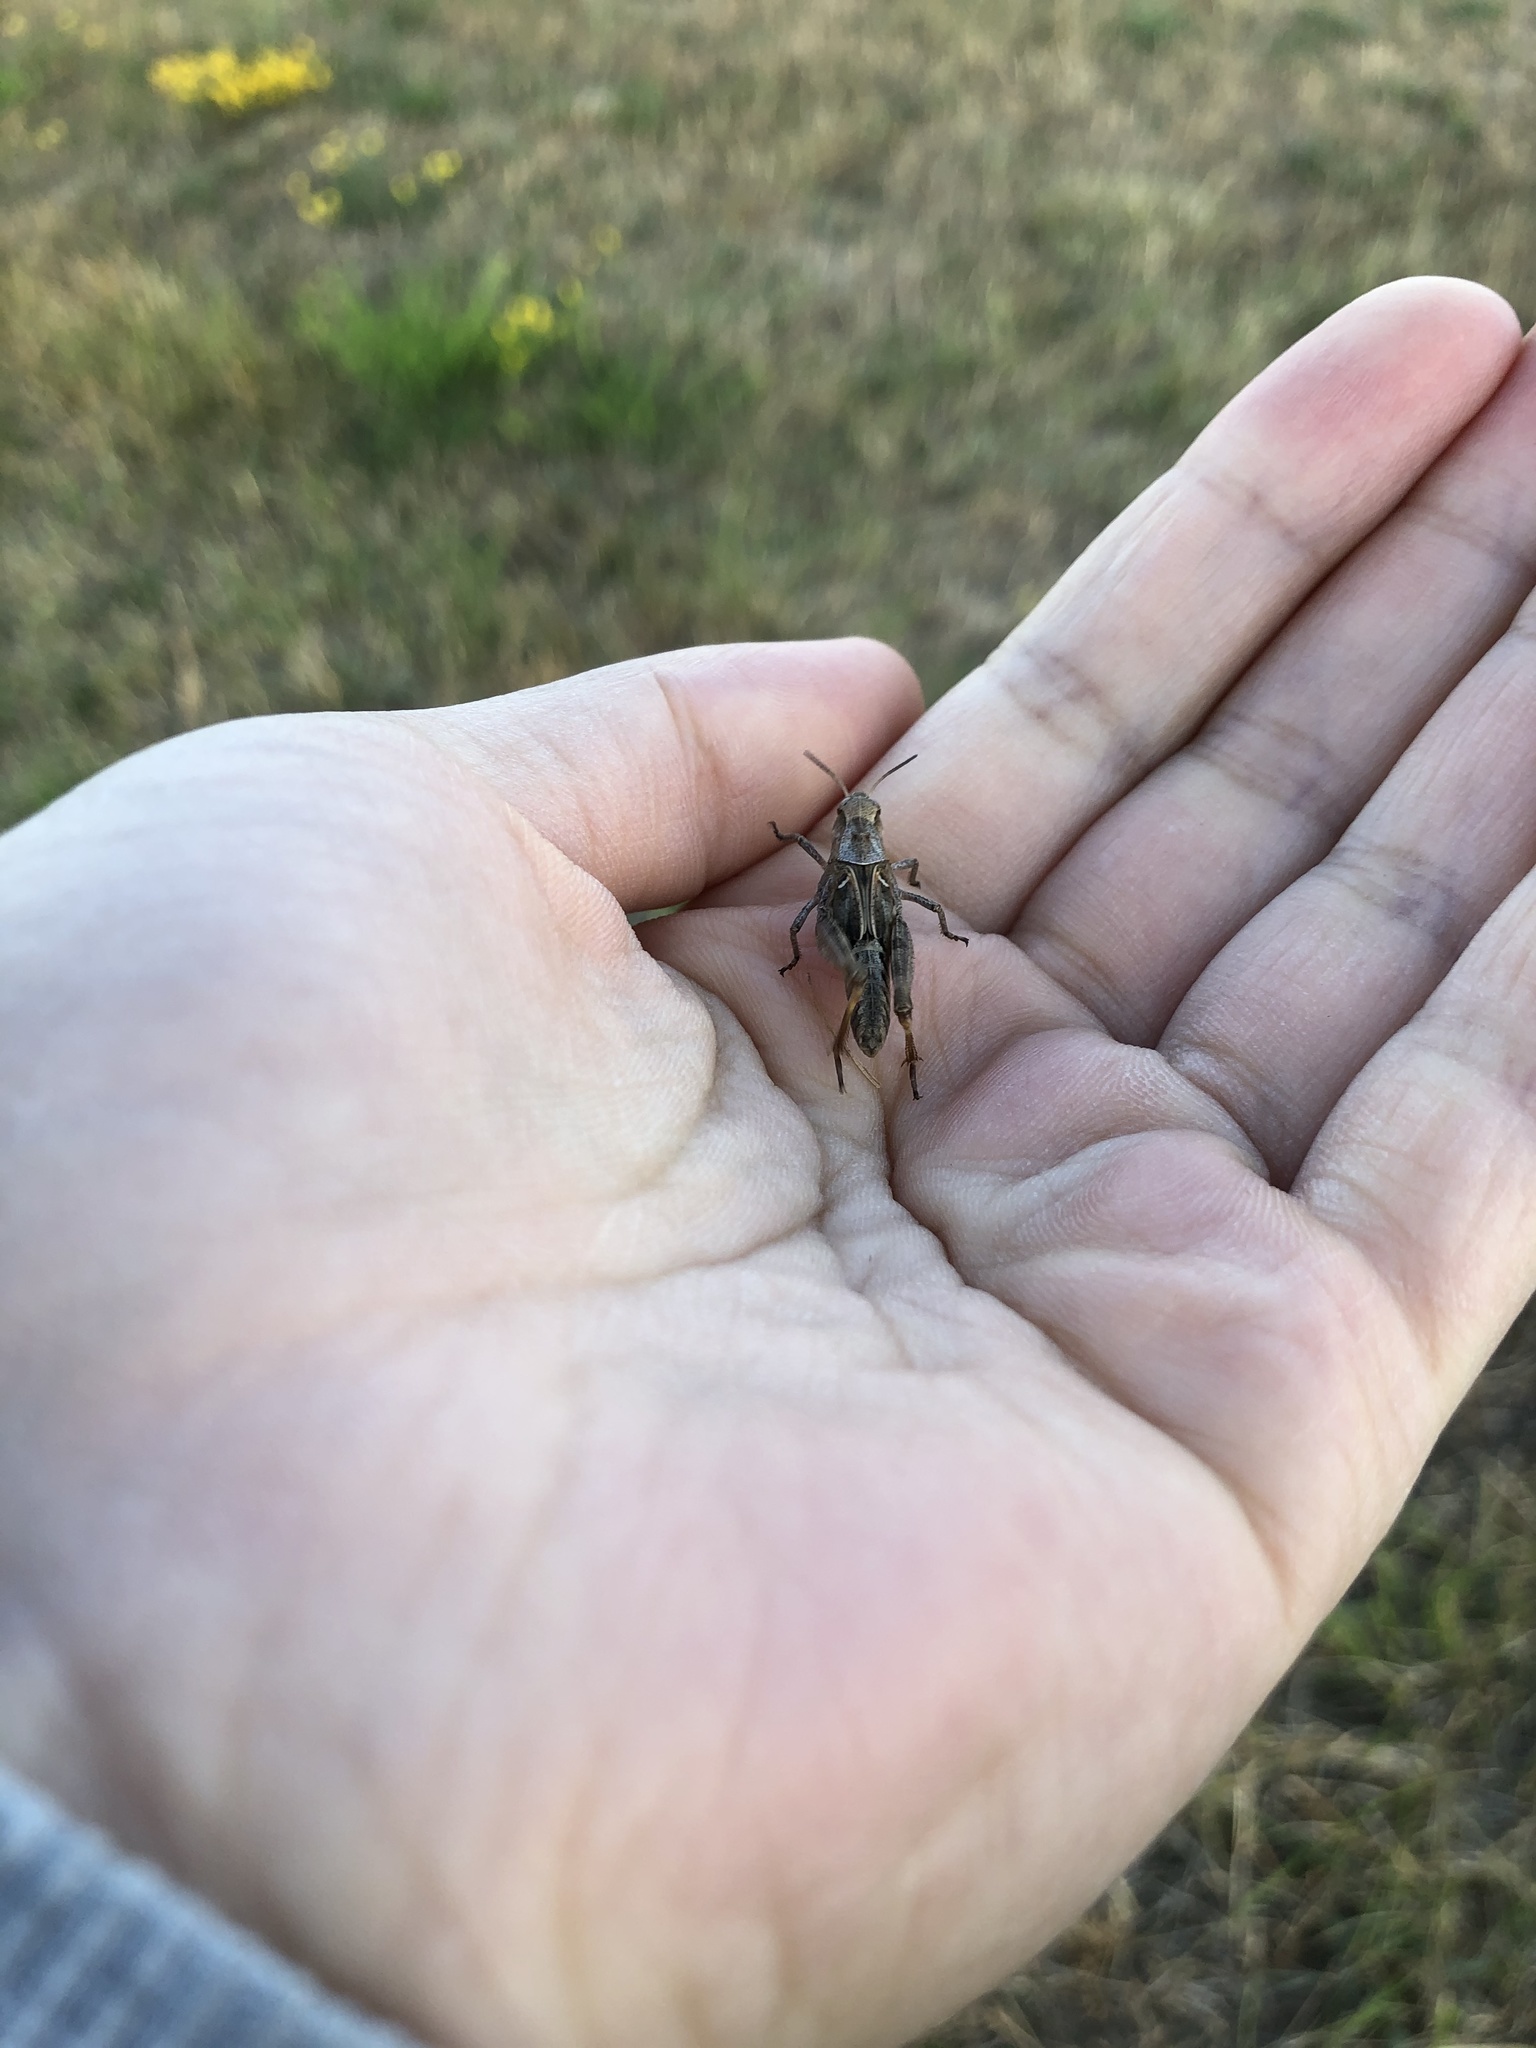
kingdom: Animalia
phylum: Arthropoda
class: Insecta
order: Orthoptera
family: Acrididae
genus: Camnula
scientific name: Camnula pellucida
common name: Clear-winged grasshopper
